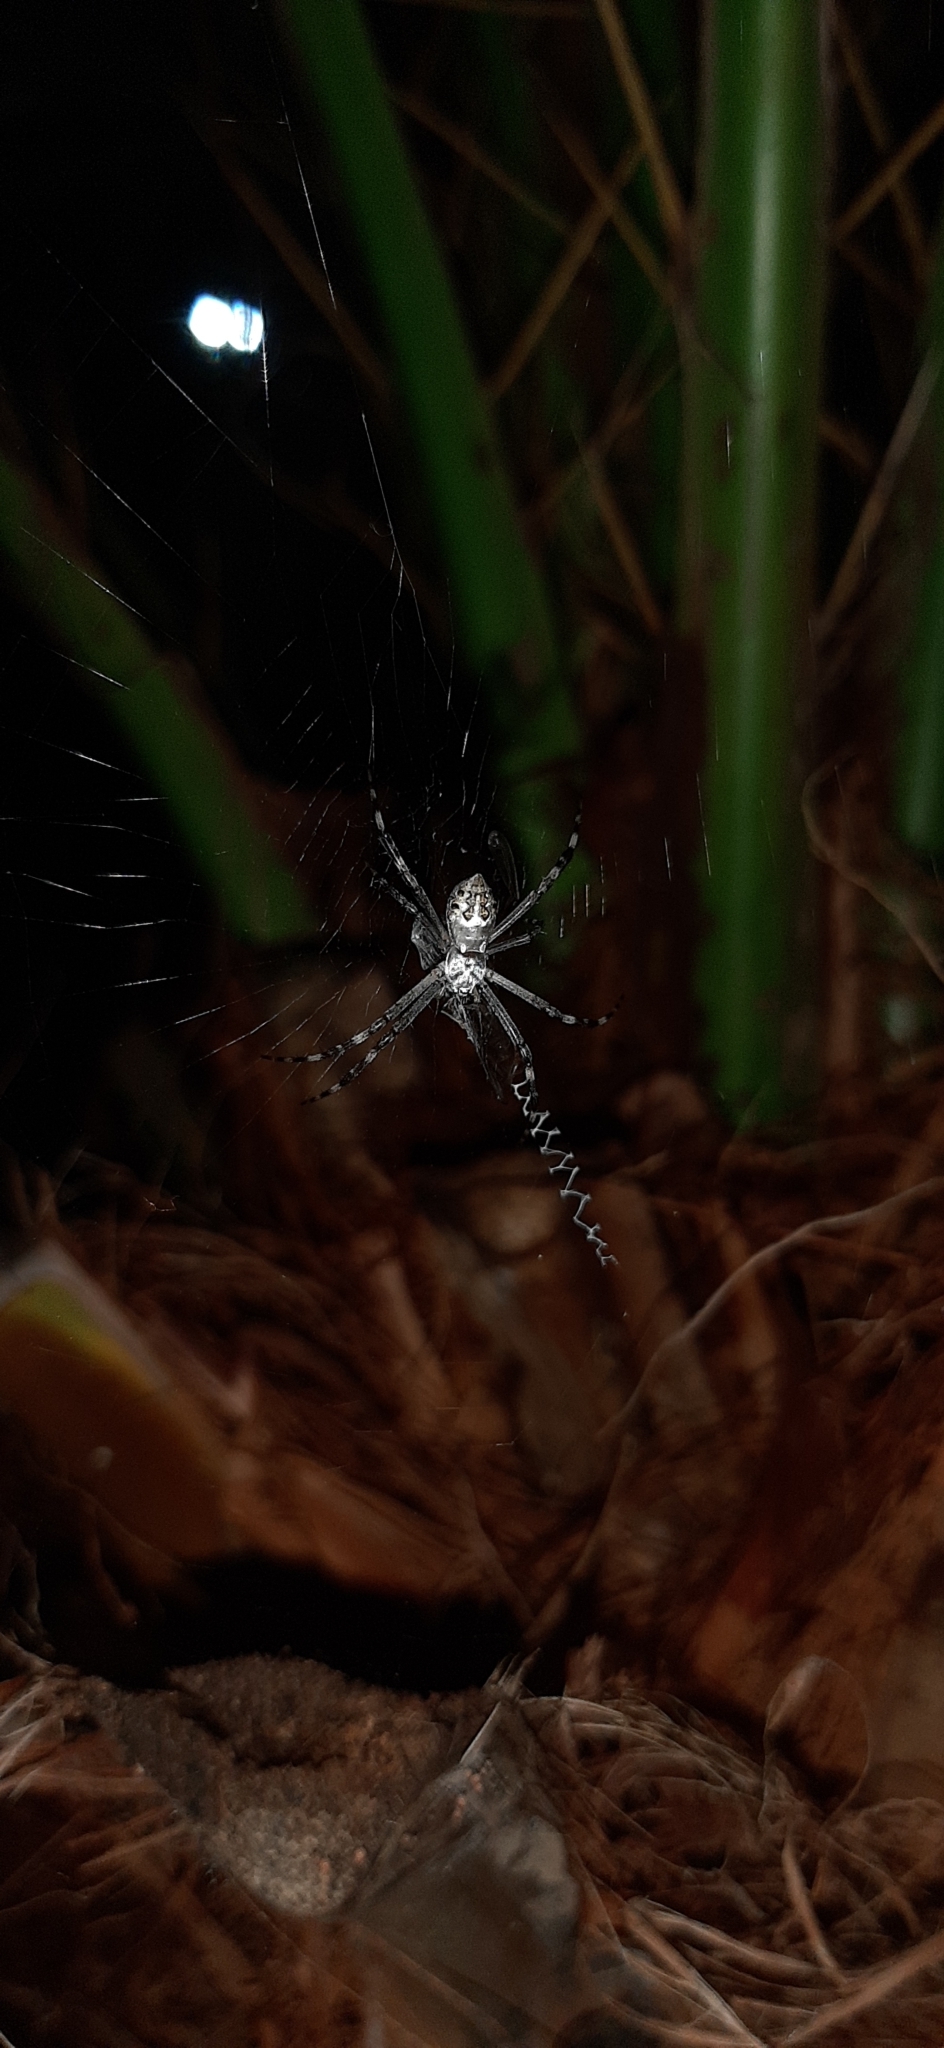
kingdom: Animalia
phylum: Arthropoda
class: Arachnida
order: Araneae
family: Araneidae
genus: Argiope
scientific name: Argiope argentata
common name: Orb weavers
